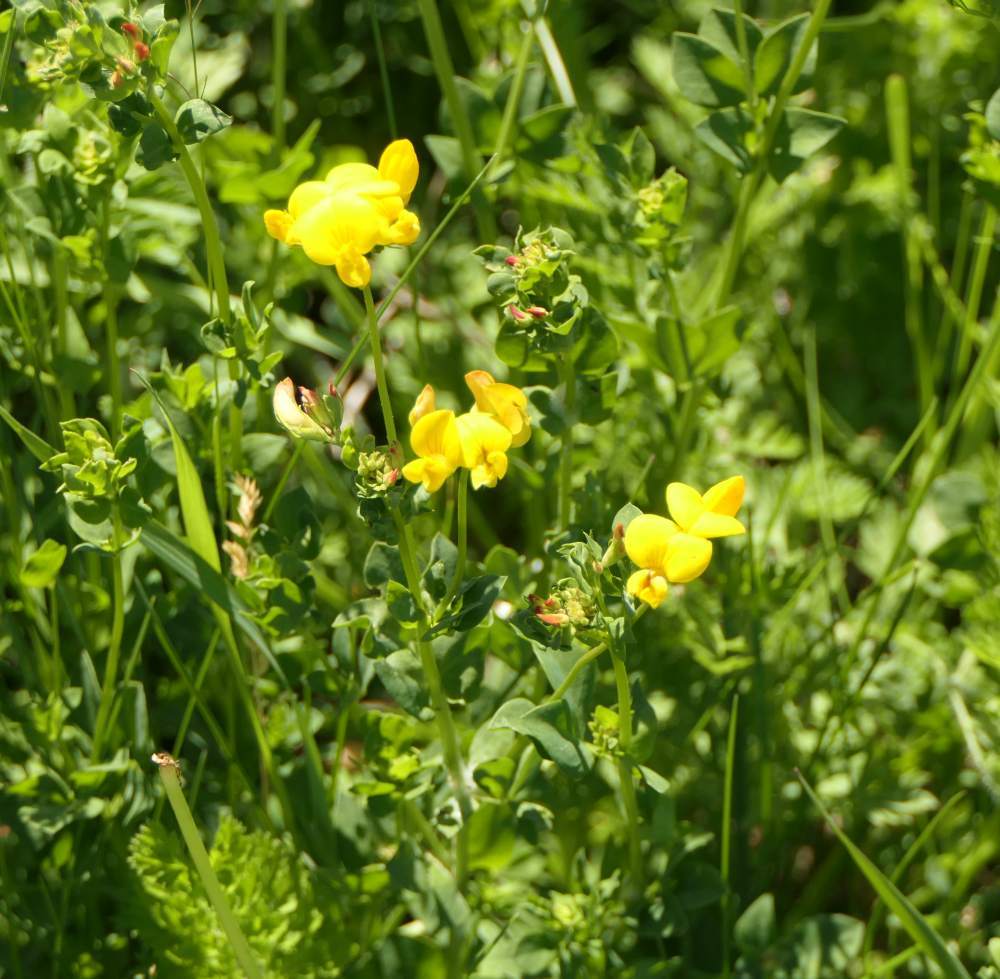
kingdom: Plantae
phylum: Tracheophyta
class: Magnoliopsida
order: Fabales
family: Fabaceae
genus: Lotus
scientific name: Lotus corniculatus
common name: Common bird's-foot-trefoil
